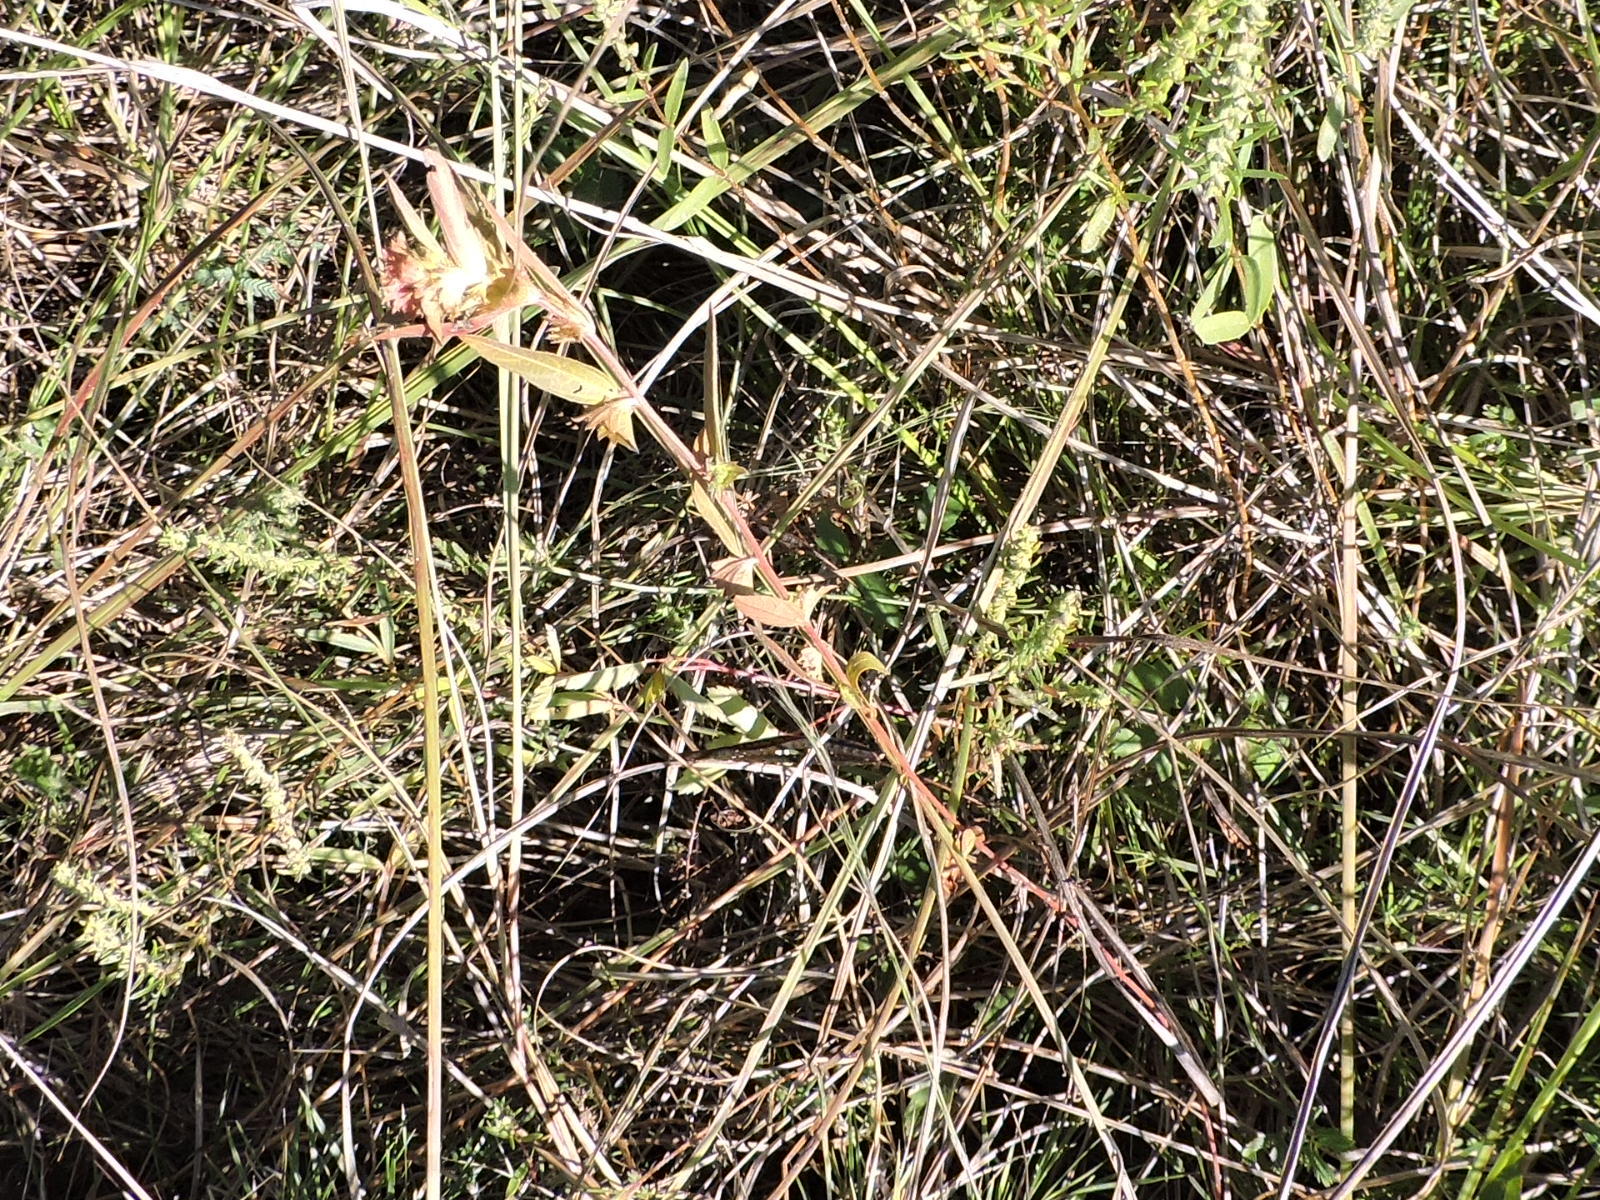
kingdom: Plantae
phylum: Tracheophyta
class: Magnoliopsida
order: Malpighiales
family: Euphorbiaceae
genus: Acalypha
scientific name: Acalypha monococca
